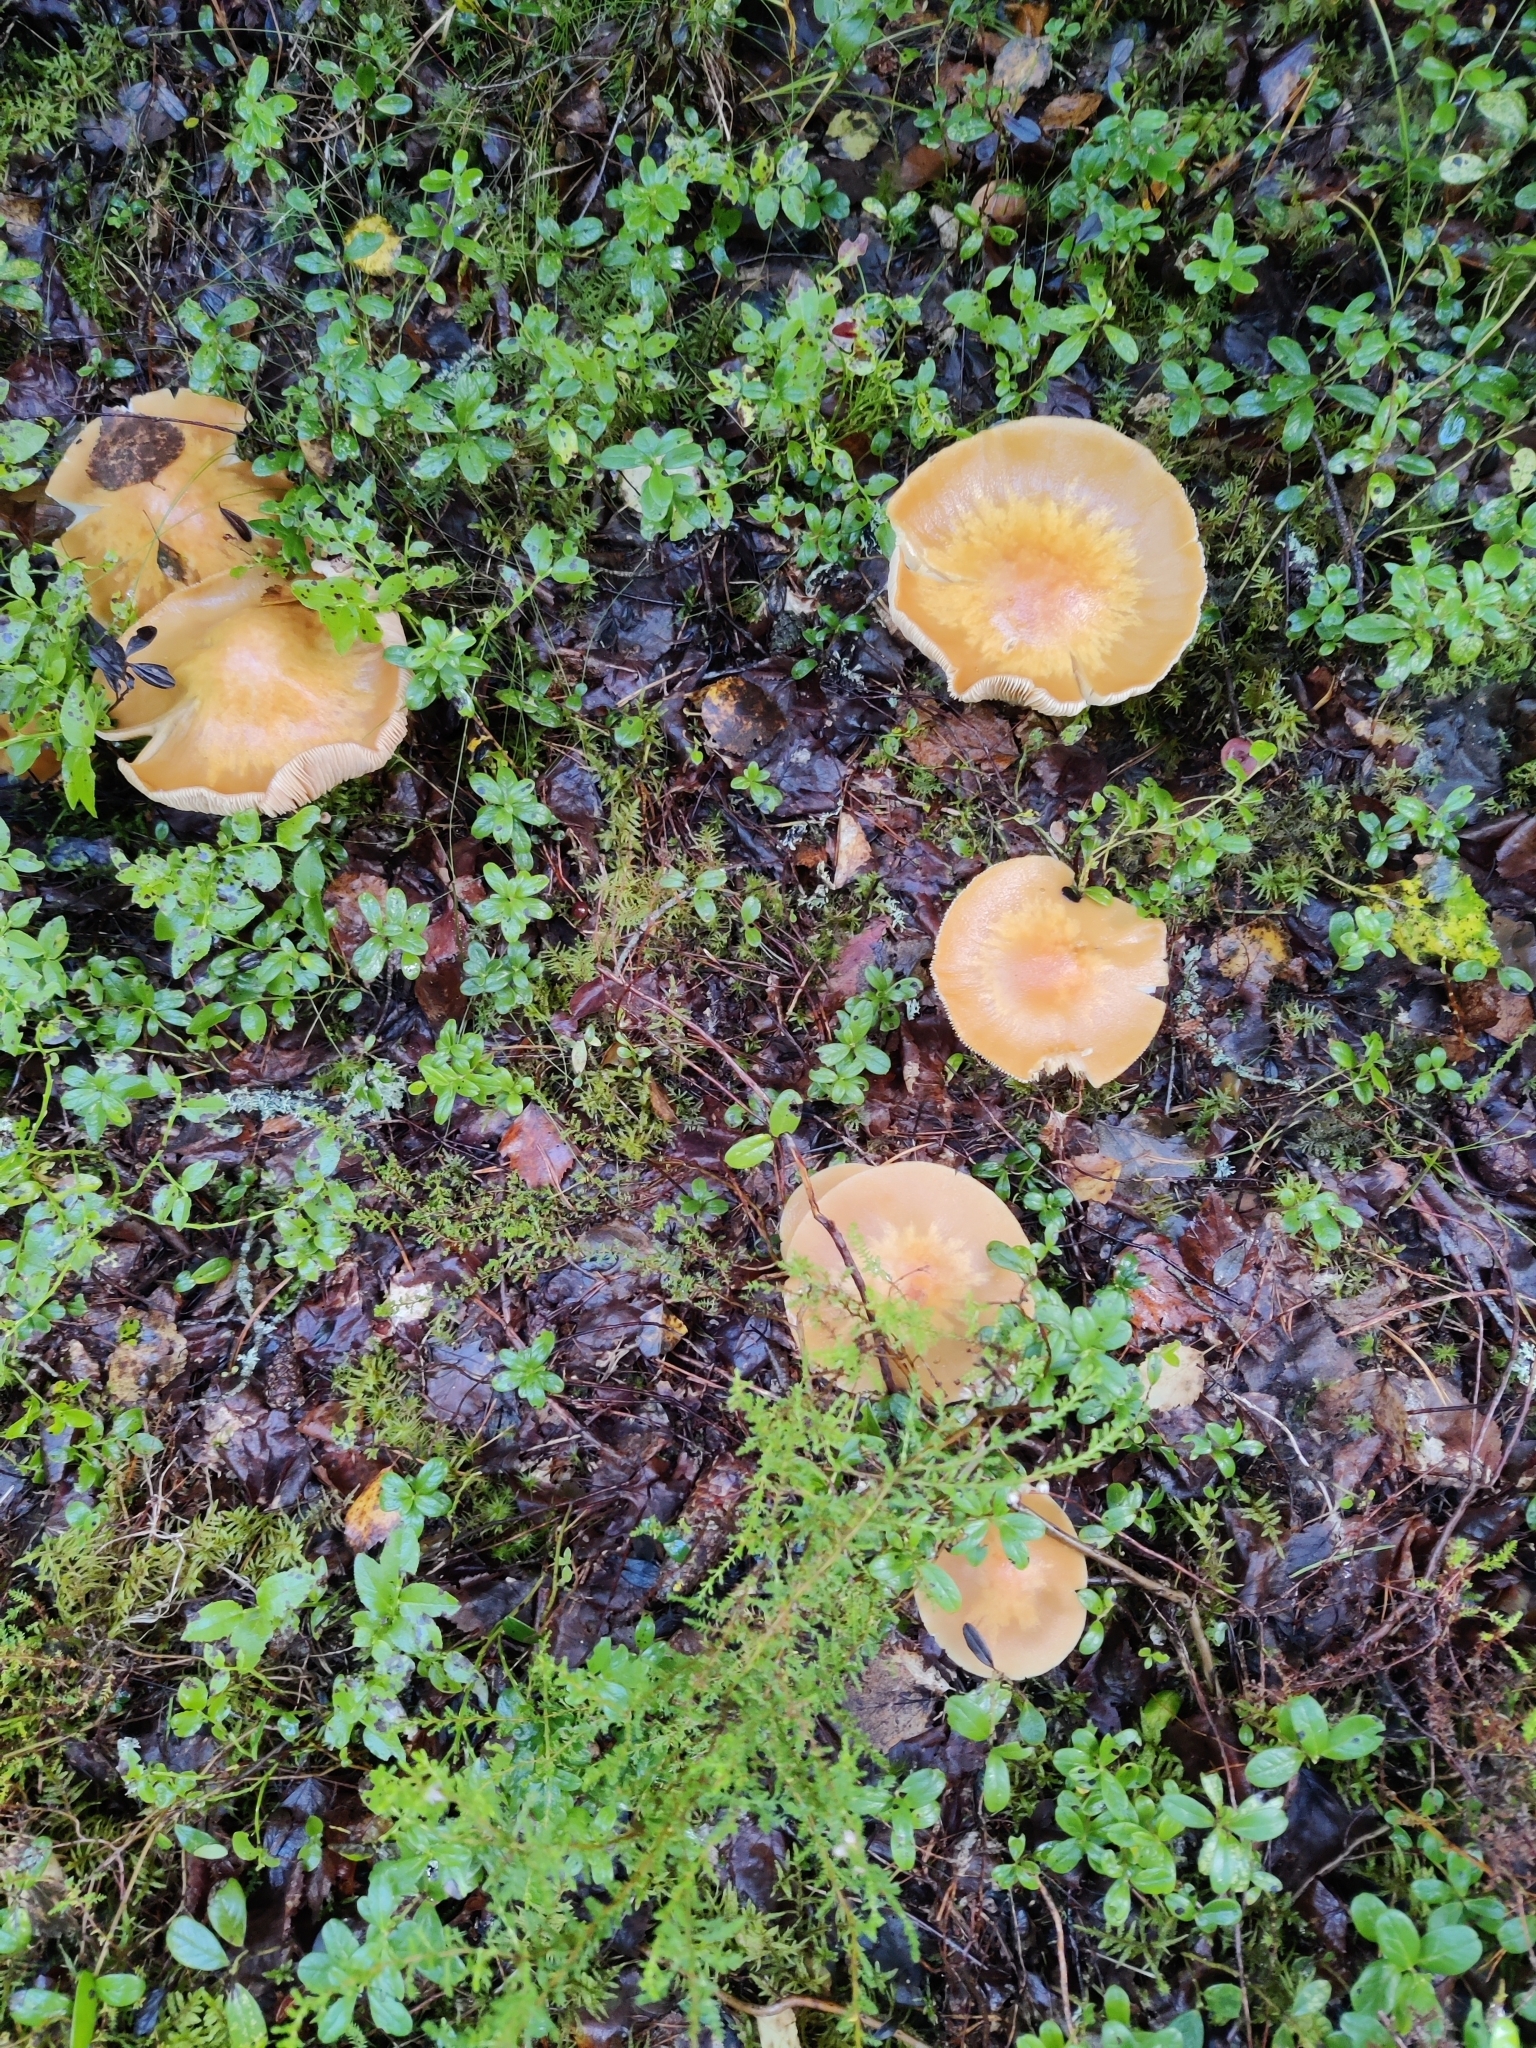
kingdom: Fungi
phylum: Basidiomycota
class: Agaricomycetes
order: Agaricales
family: Cortinariaceae
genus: Cortinarius
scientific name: Cortinarius caperatus
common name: The gypsy
